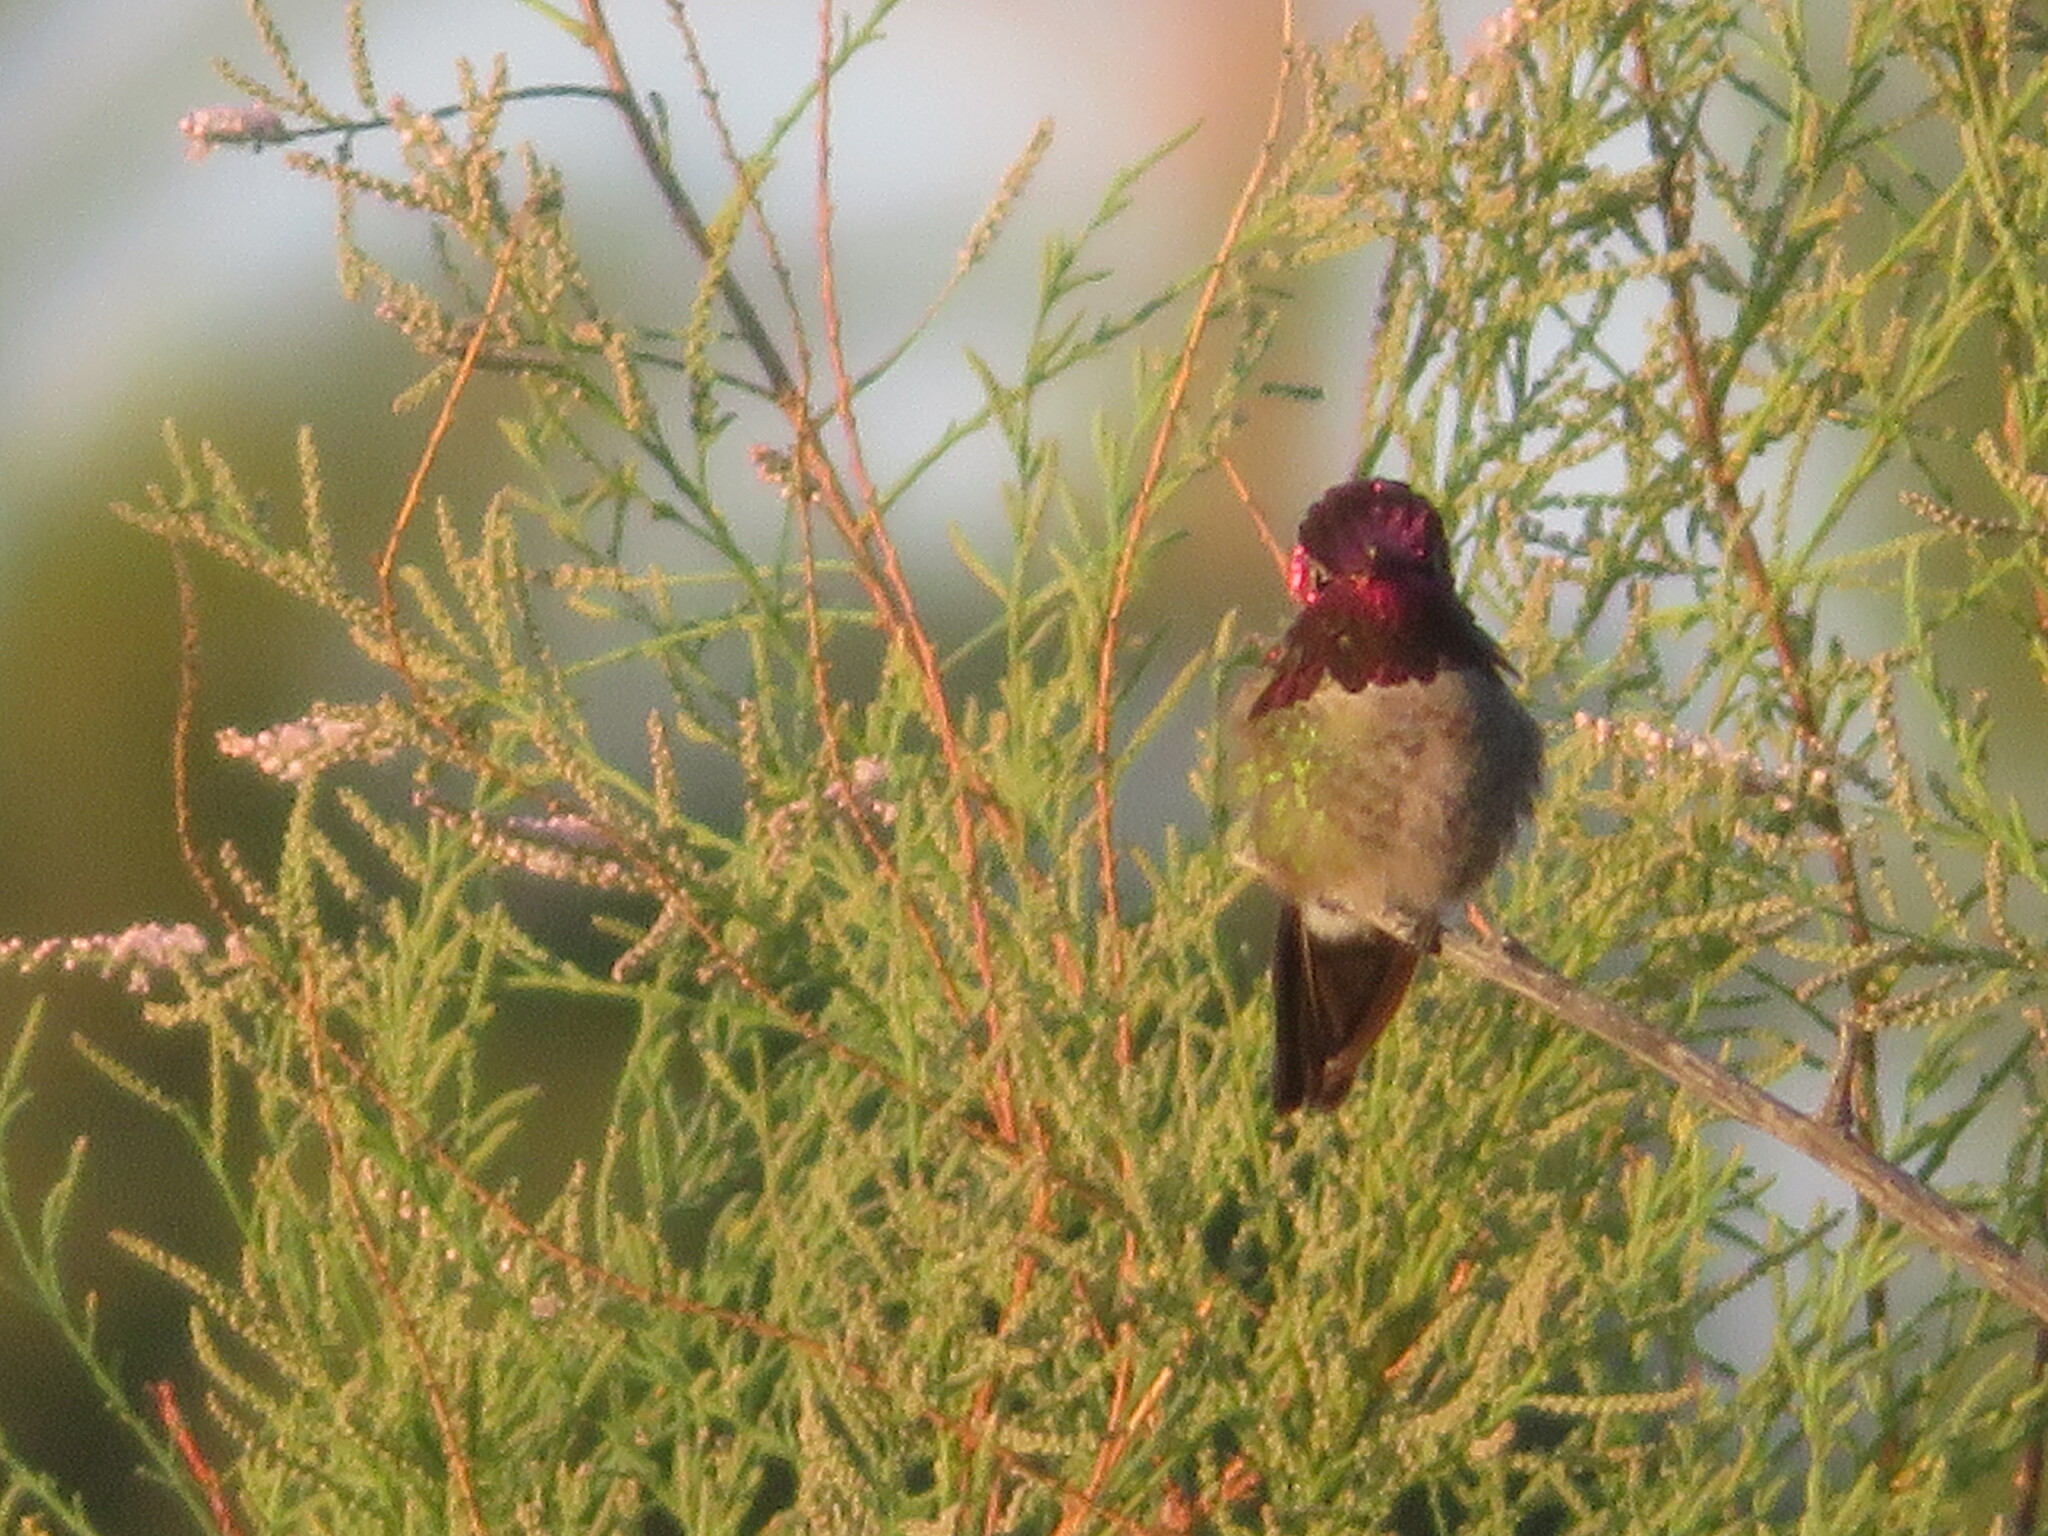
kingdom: Animalia
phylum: Chordata
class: Aves
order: Apodiformes
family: Trochilidae
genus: Calypte
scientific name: Calypte anna
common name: Anna's hummingbird
